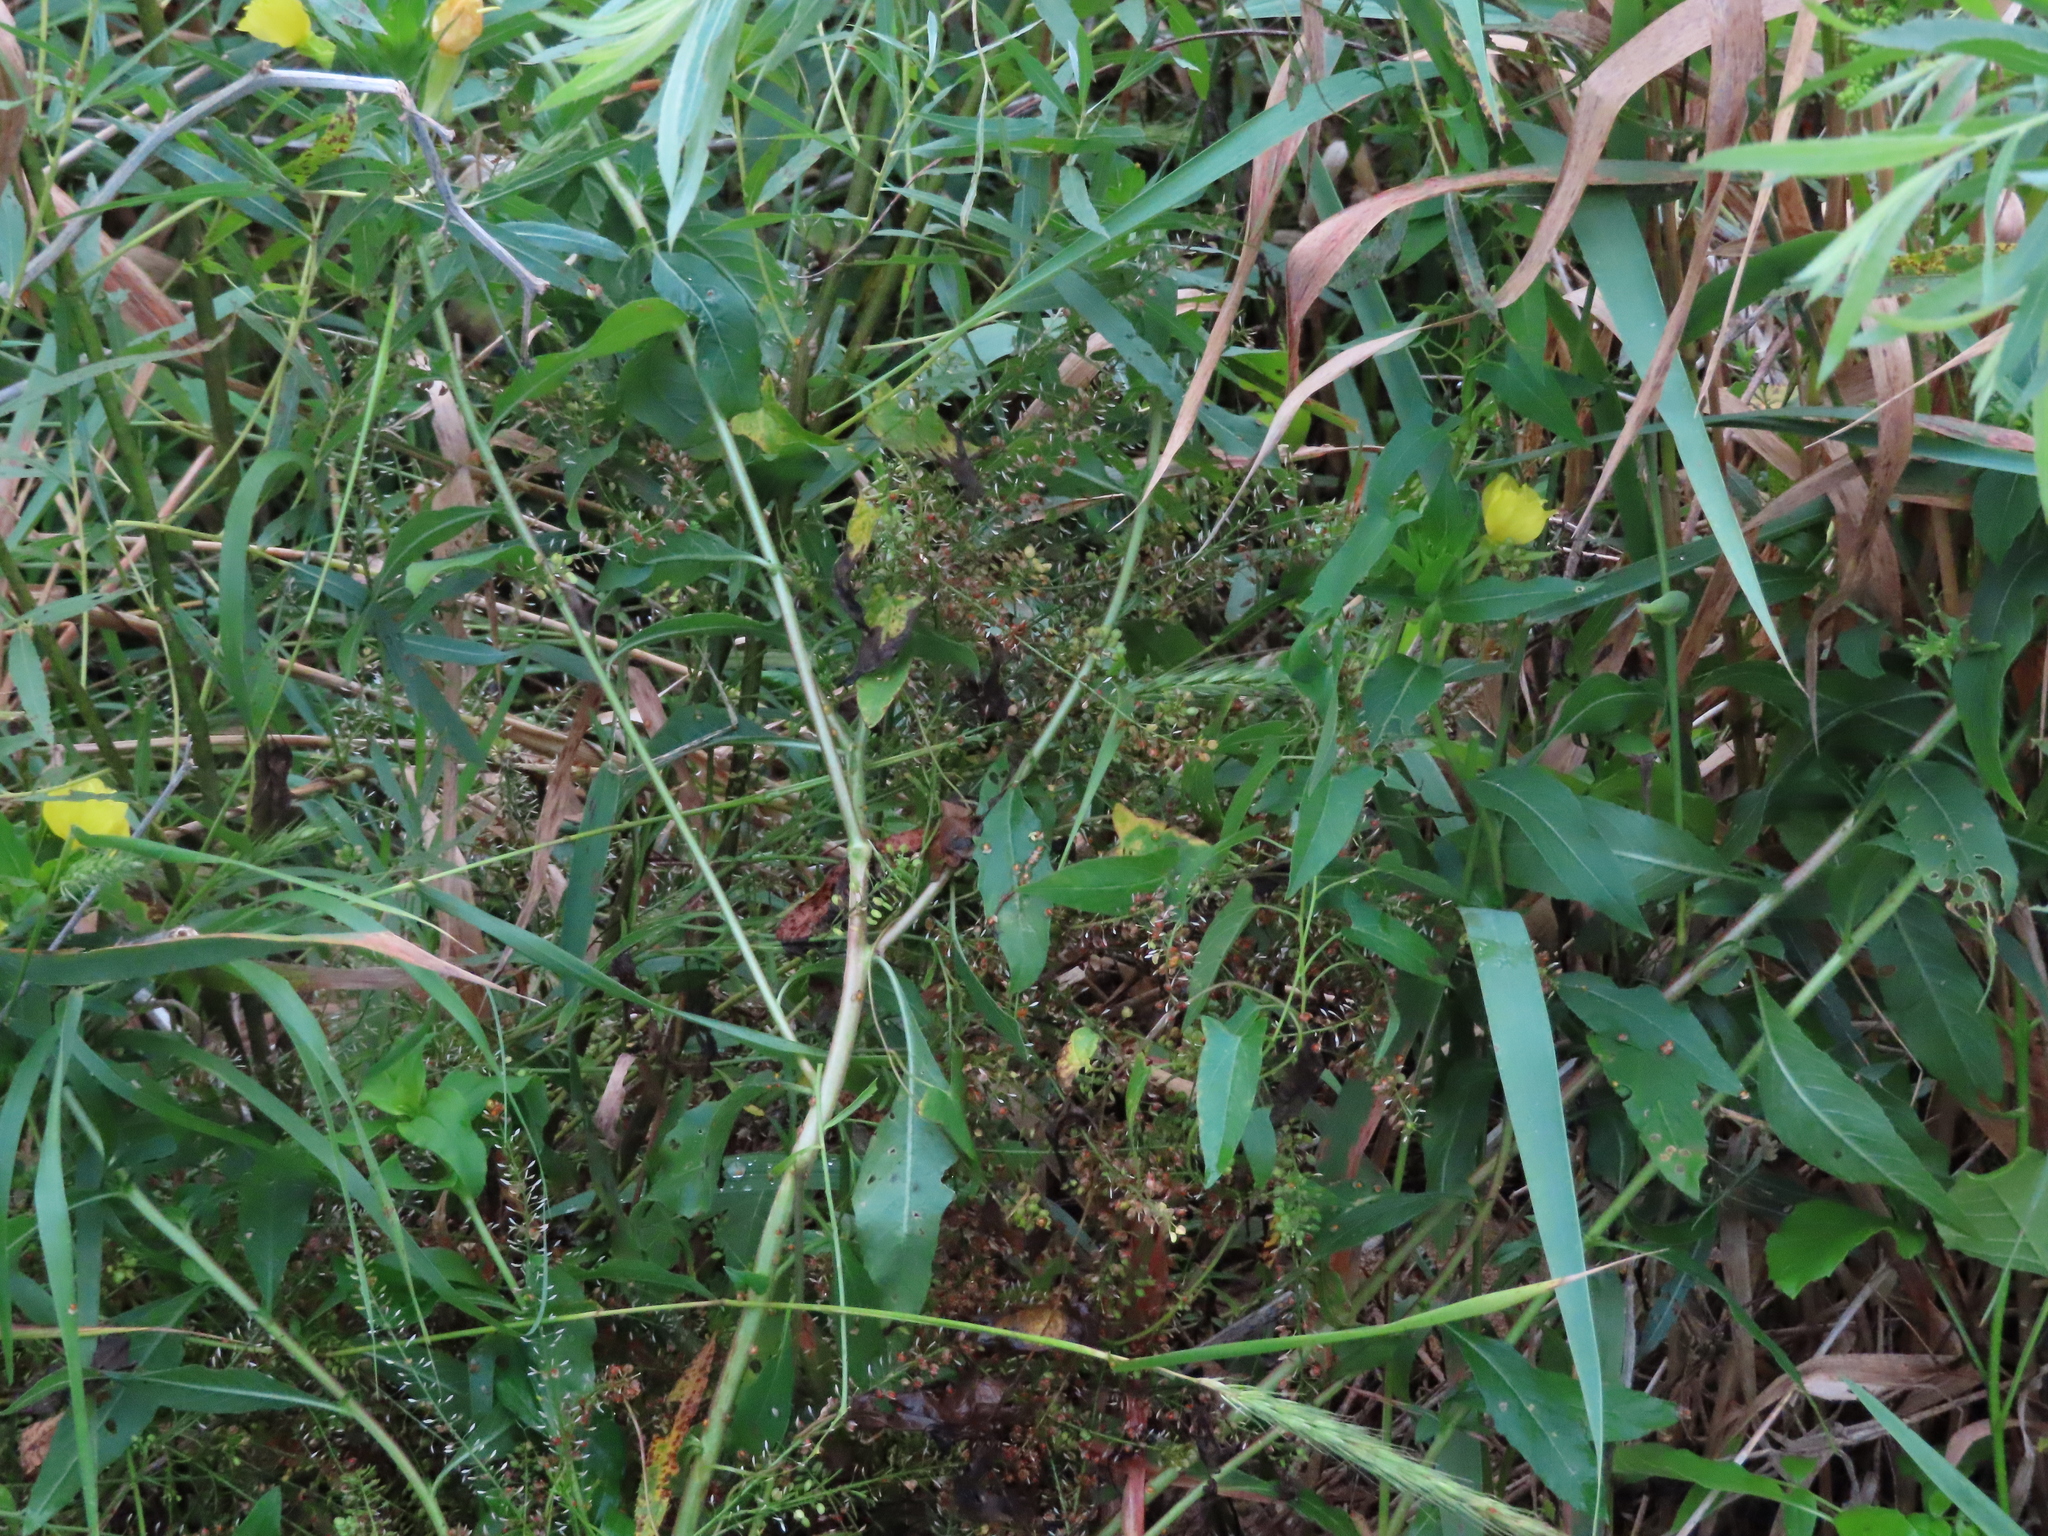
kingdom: Plantae
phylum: Tracheophyta
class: Magnoliopsida
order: Brassicales
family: Brassicaceae
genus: Lepidium
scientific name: Lepidium
